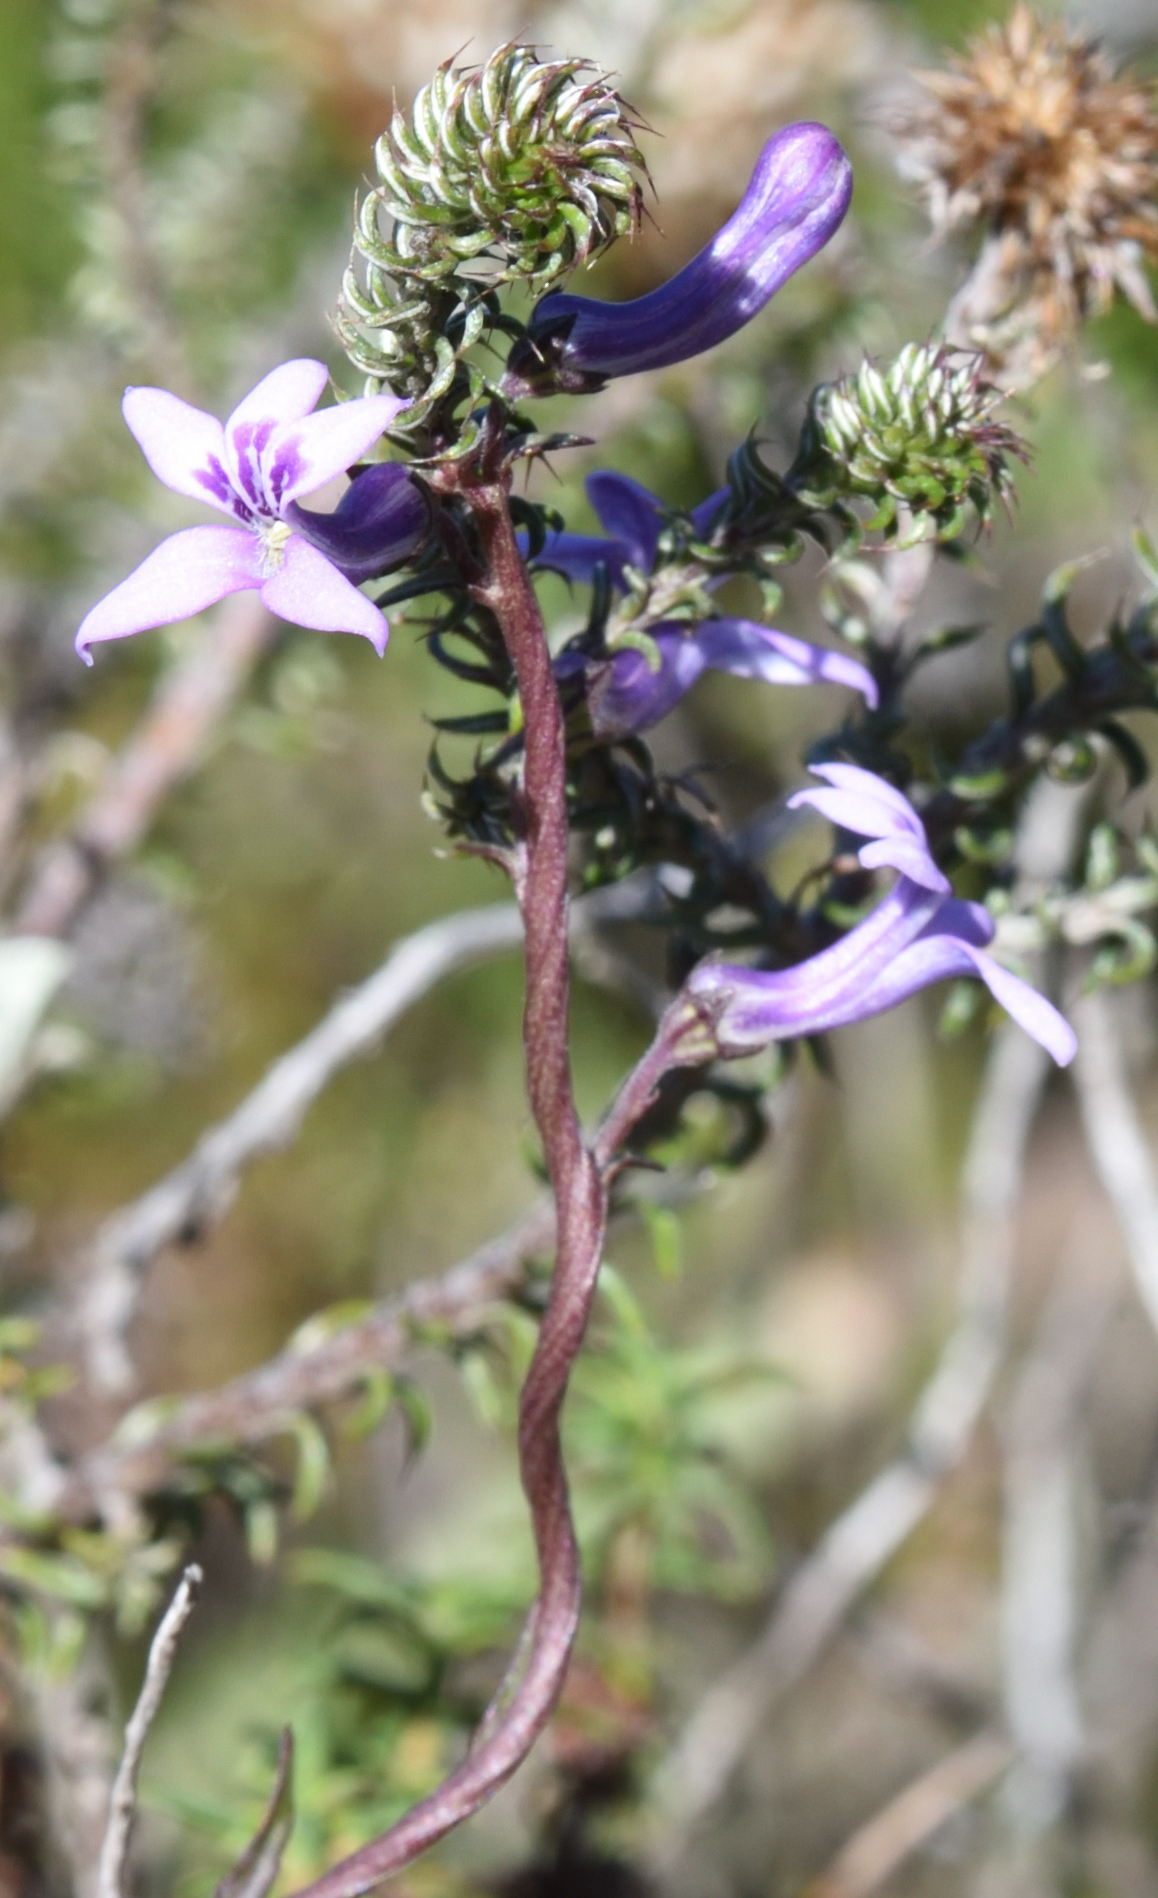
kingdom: Plantae
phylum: Tracheophyta
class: Magnoliopsida
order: Asterales
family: Campanulaceae
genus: Cyphia
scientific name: Cyphia heterophylla
